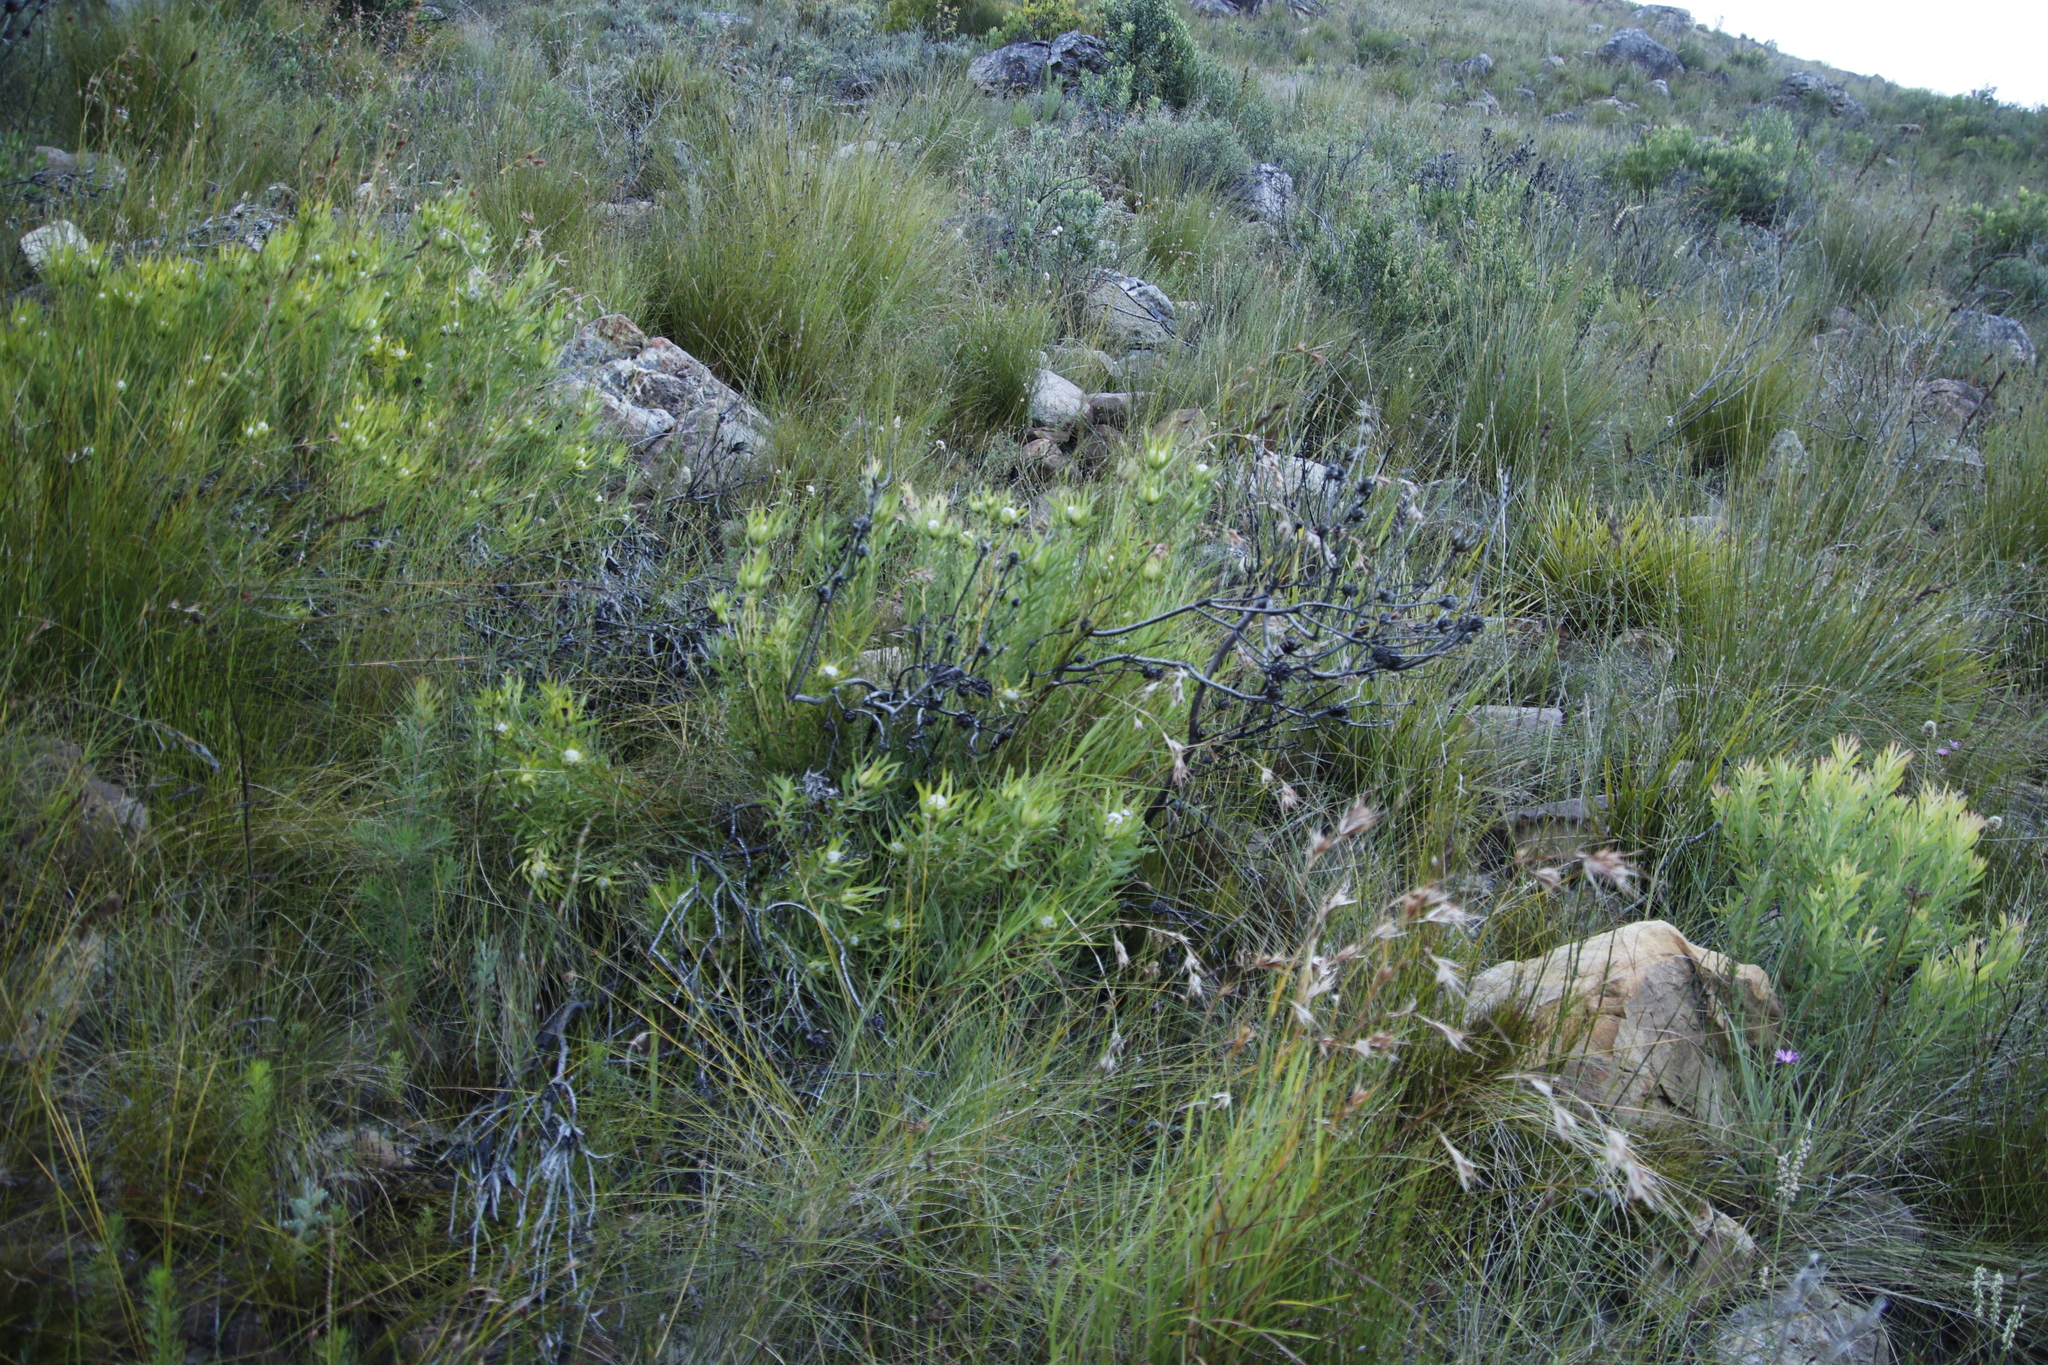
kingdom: Plantae
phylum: Tracheophyta
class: Magnoliopsida
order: Proteales
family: Proteaceae
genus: Leucadendron
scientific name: Leucadendron salignum
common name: Common sunshine conebush
